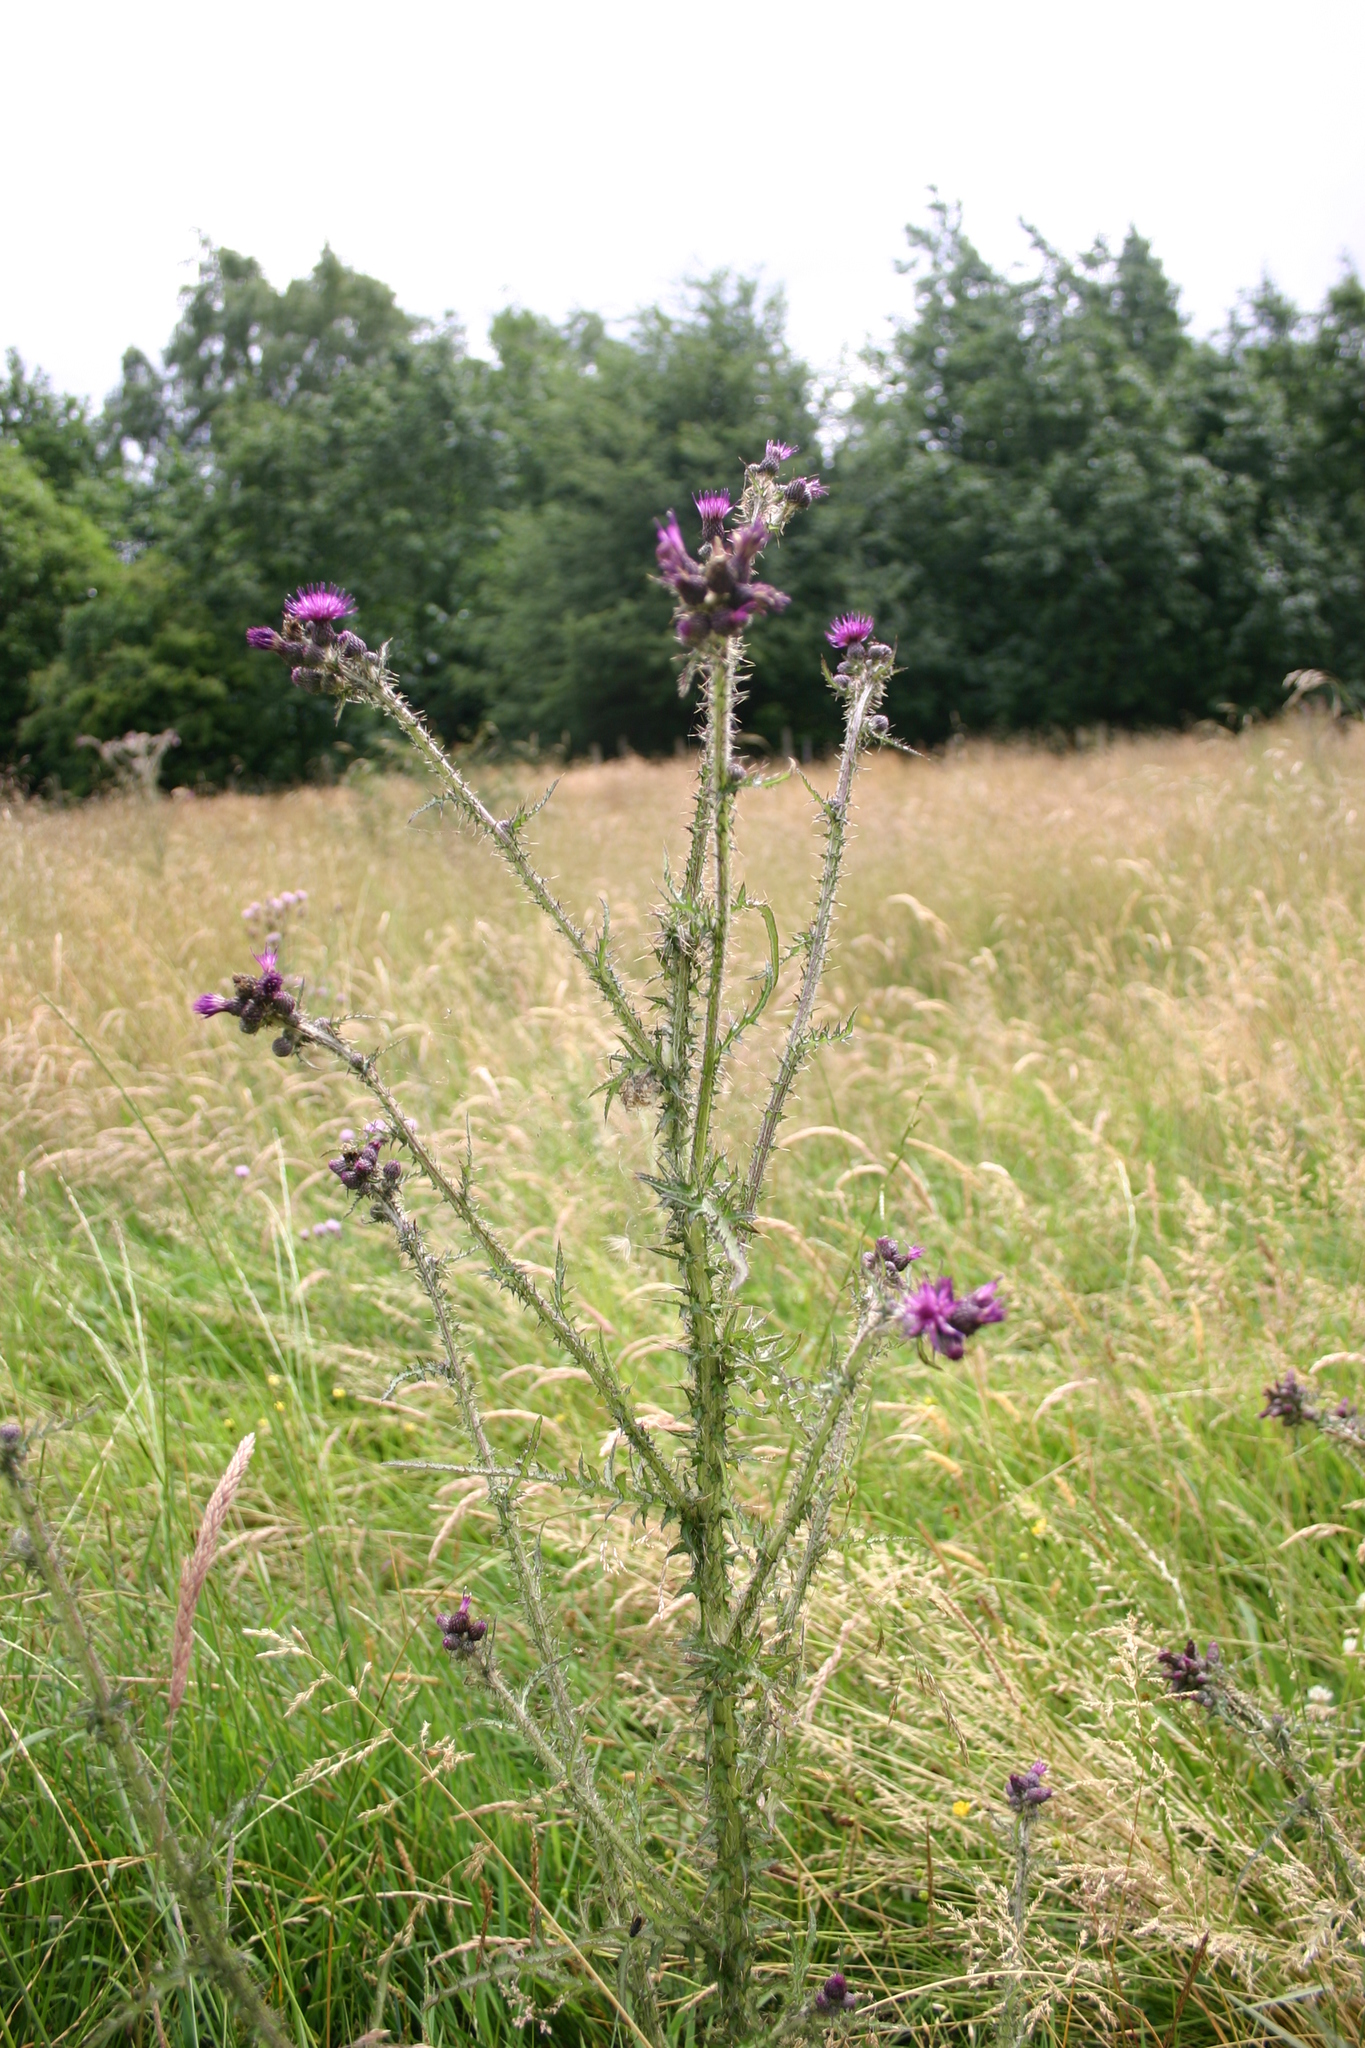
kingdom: Plantae
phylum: Tracheophyta
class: Magnoliopsida
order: Asterales
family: Asteraceae
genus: Cirsium
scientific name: Cirsium palustre
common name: Marsh thistle
